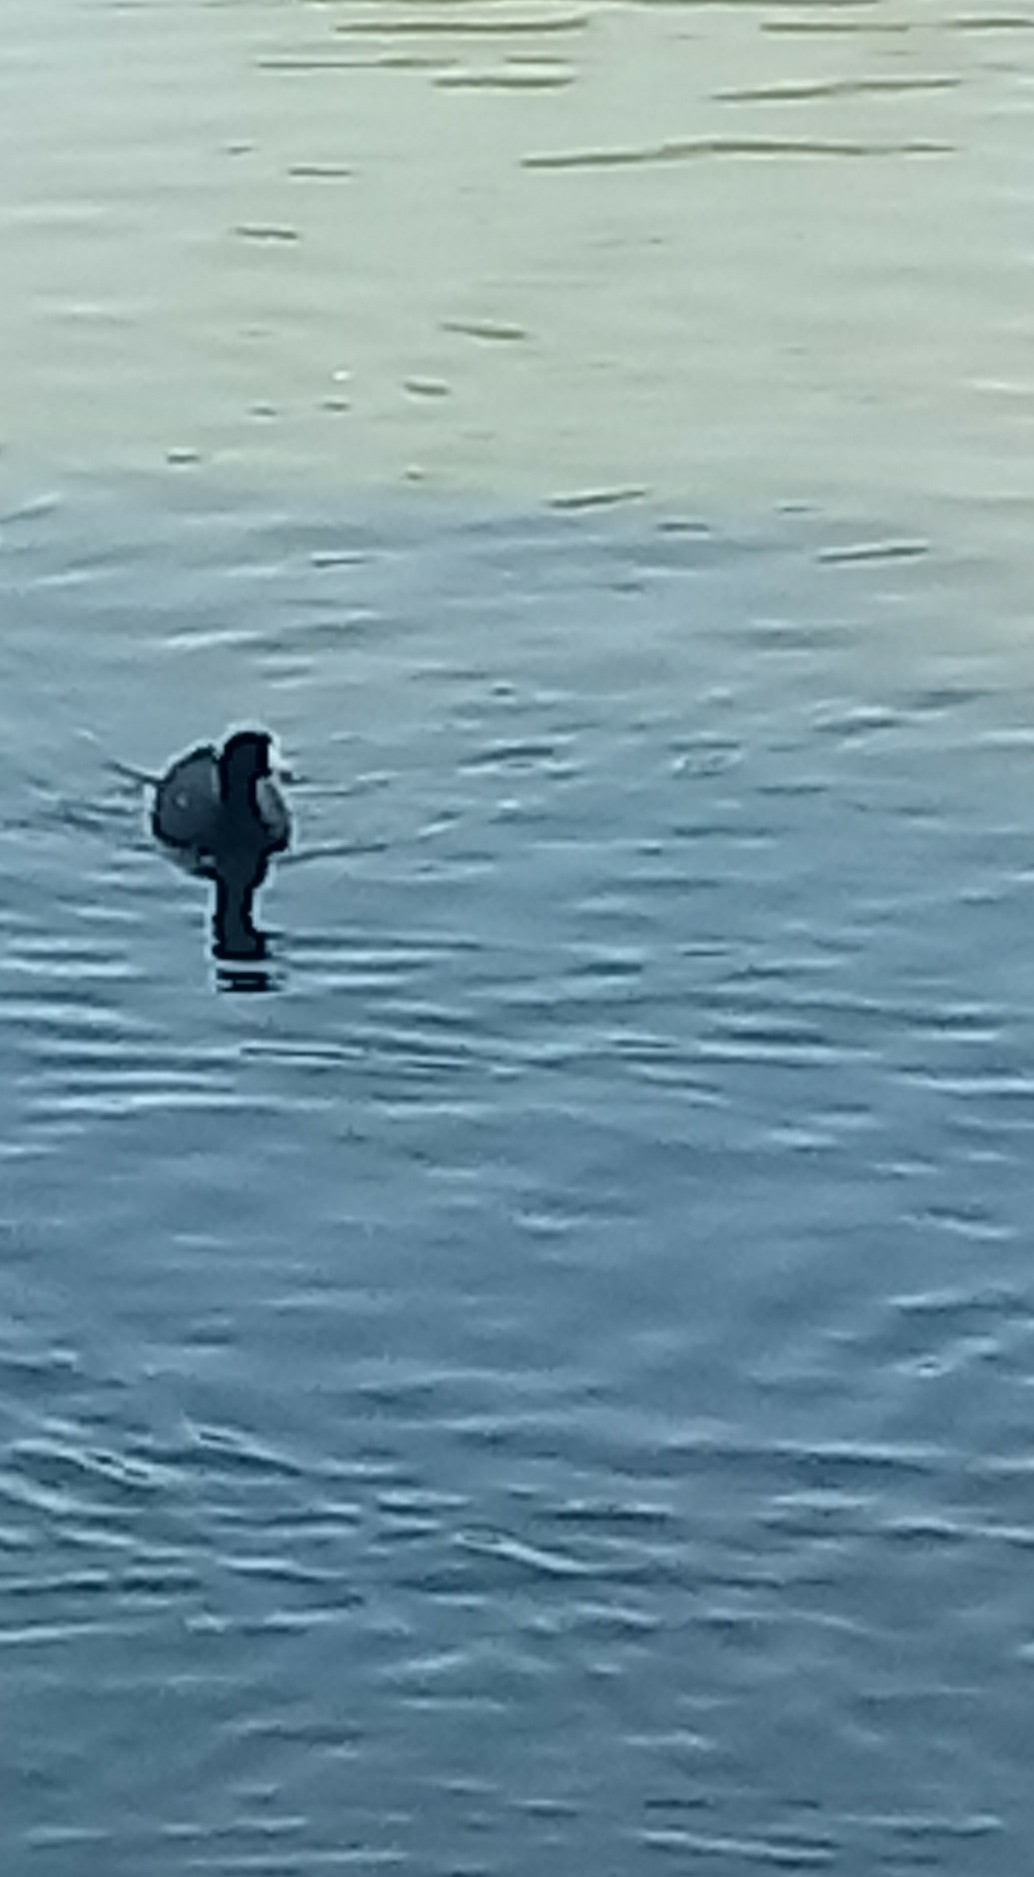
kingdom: Animalia
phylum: Chordata
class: Aves
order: Gruiformes
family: Rallidae
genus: Fulica
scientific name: Fulica americana
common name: American coot
